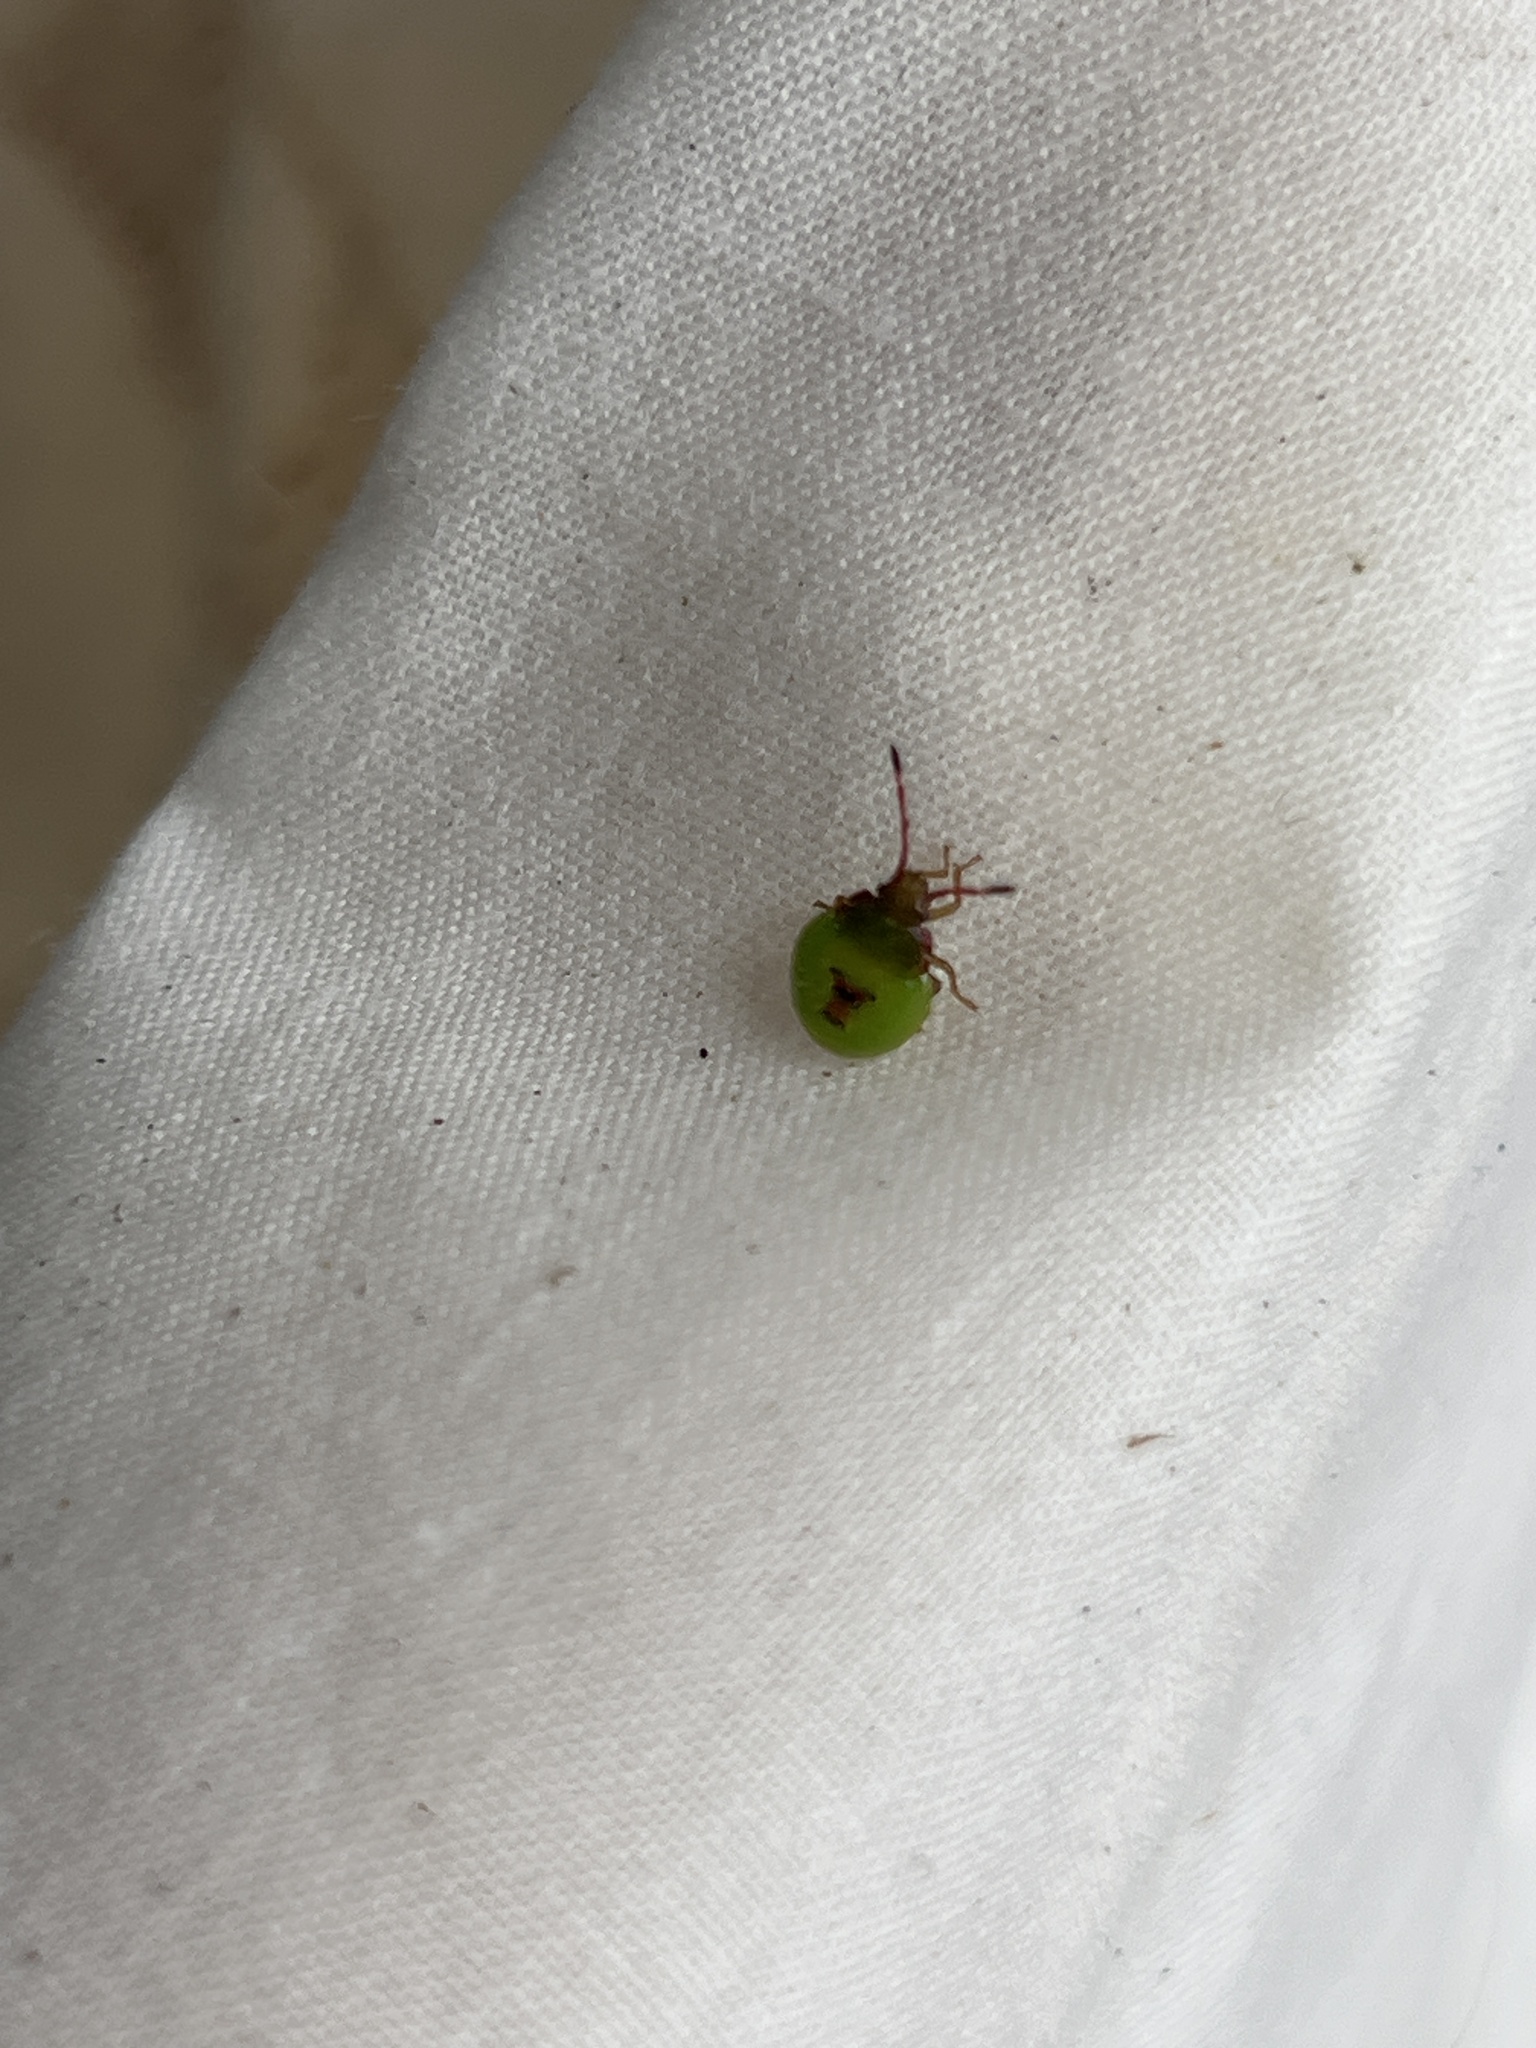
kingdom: Animalia
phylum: Arthropoda
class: Insecta
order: Hemiptera
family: Acanthosomatidae
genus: Acanthosoma
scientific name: Acanthosoma haemorrhoidale
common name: Hawthorn shieldbug
